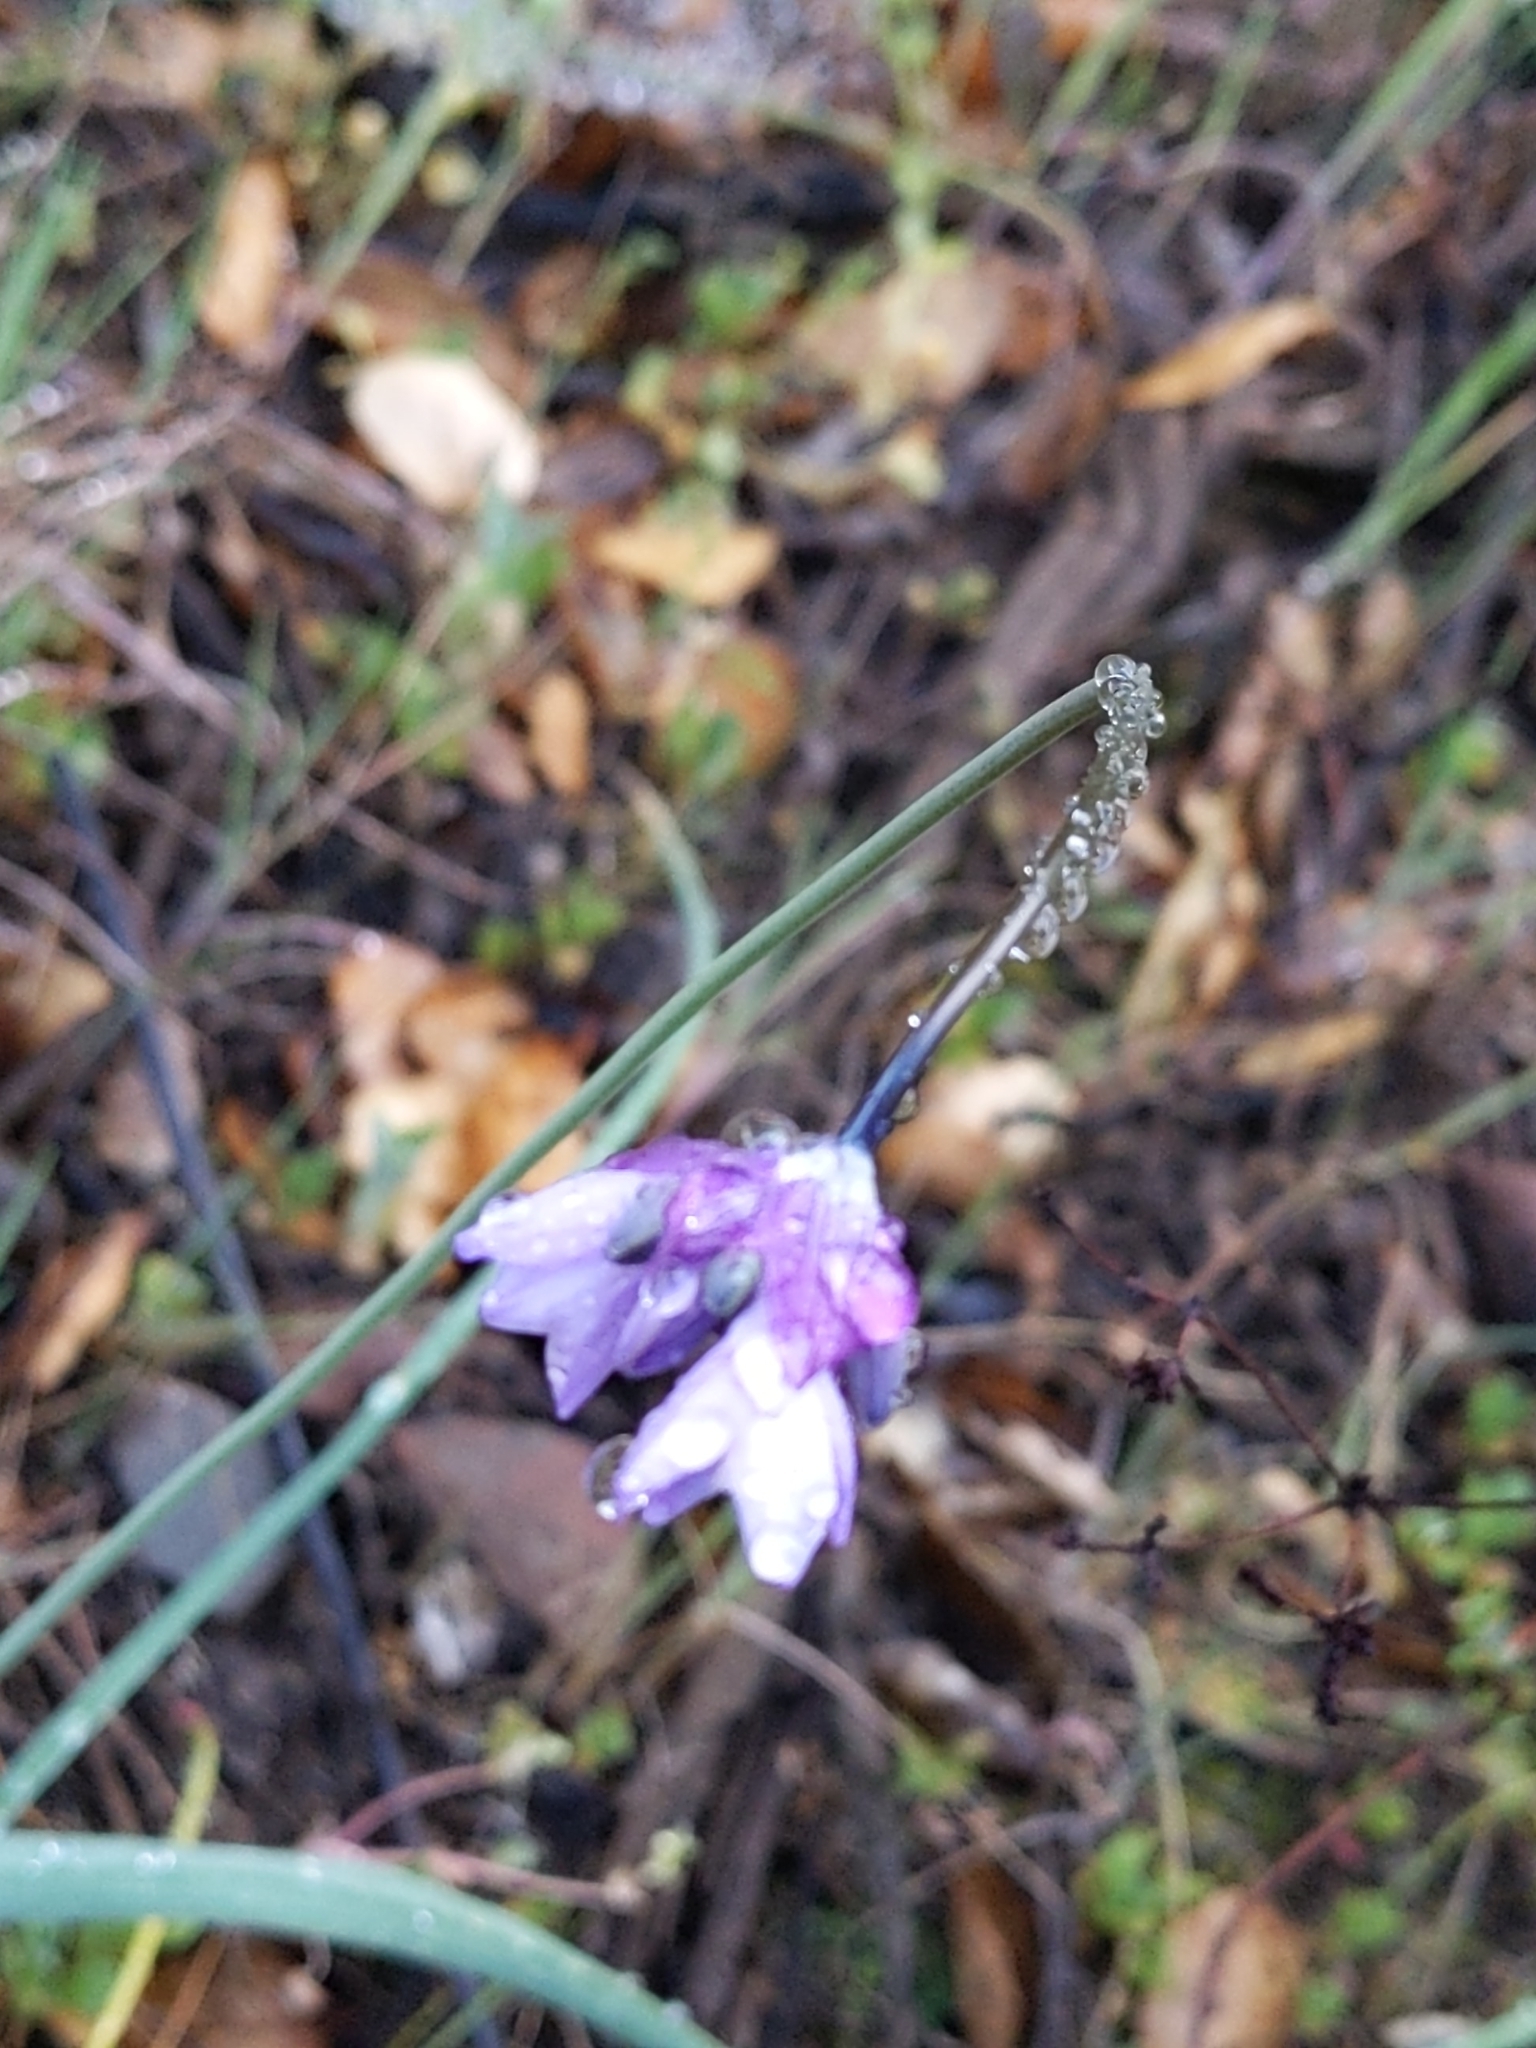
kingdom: Plantae
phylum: Tracheophyta
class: Liliopsida
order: Asparagales
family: Asparagaceae
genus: Dipterostemon
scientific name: Dipterostemon capitatus
